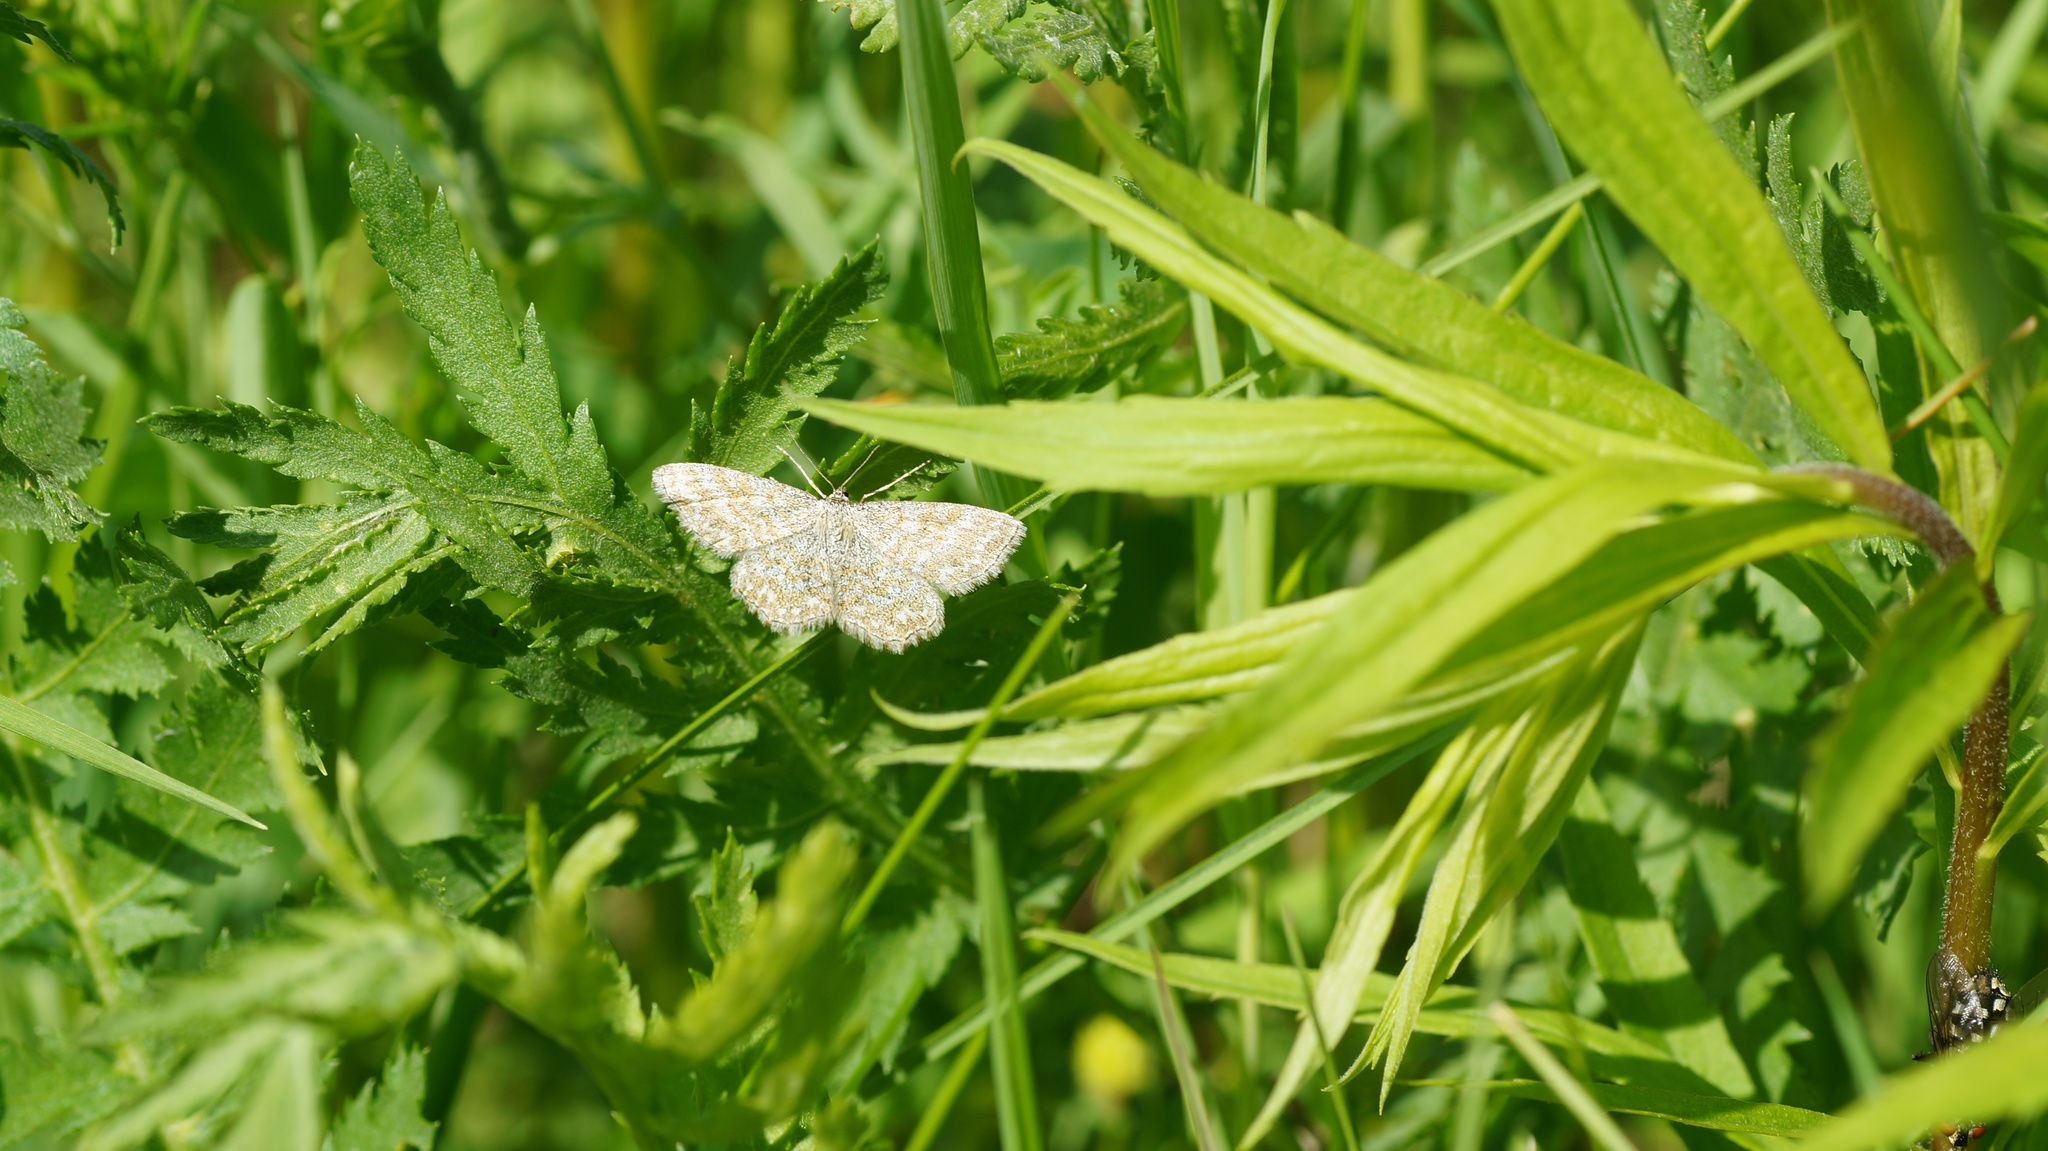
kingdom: Animalia
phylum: Arthropoda
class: Insecta
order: Lepidoptera
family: Geometridae
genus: Scopula
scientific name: Scopula immorata
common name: Lewes wave
